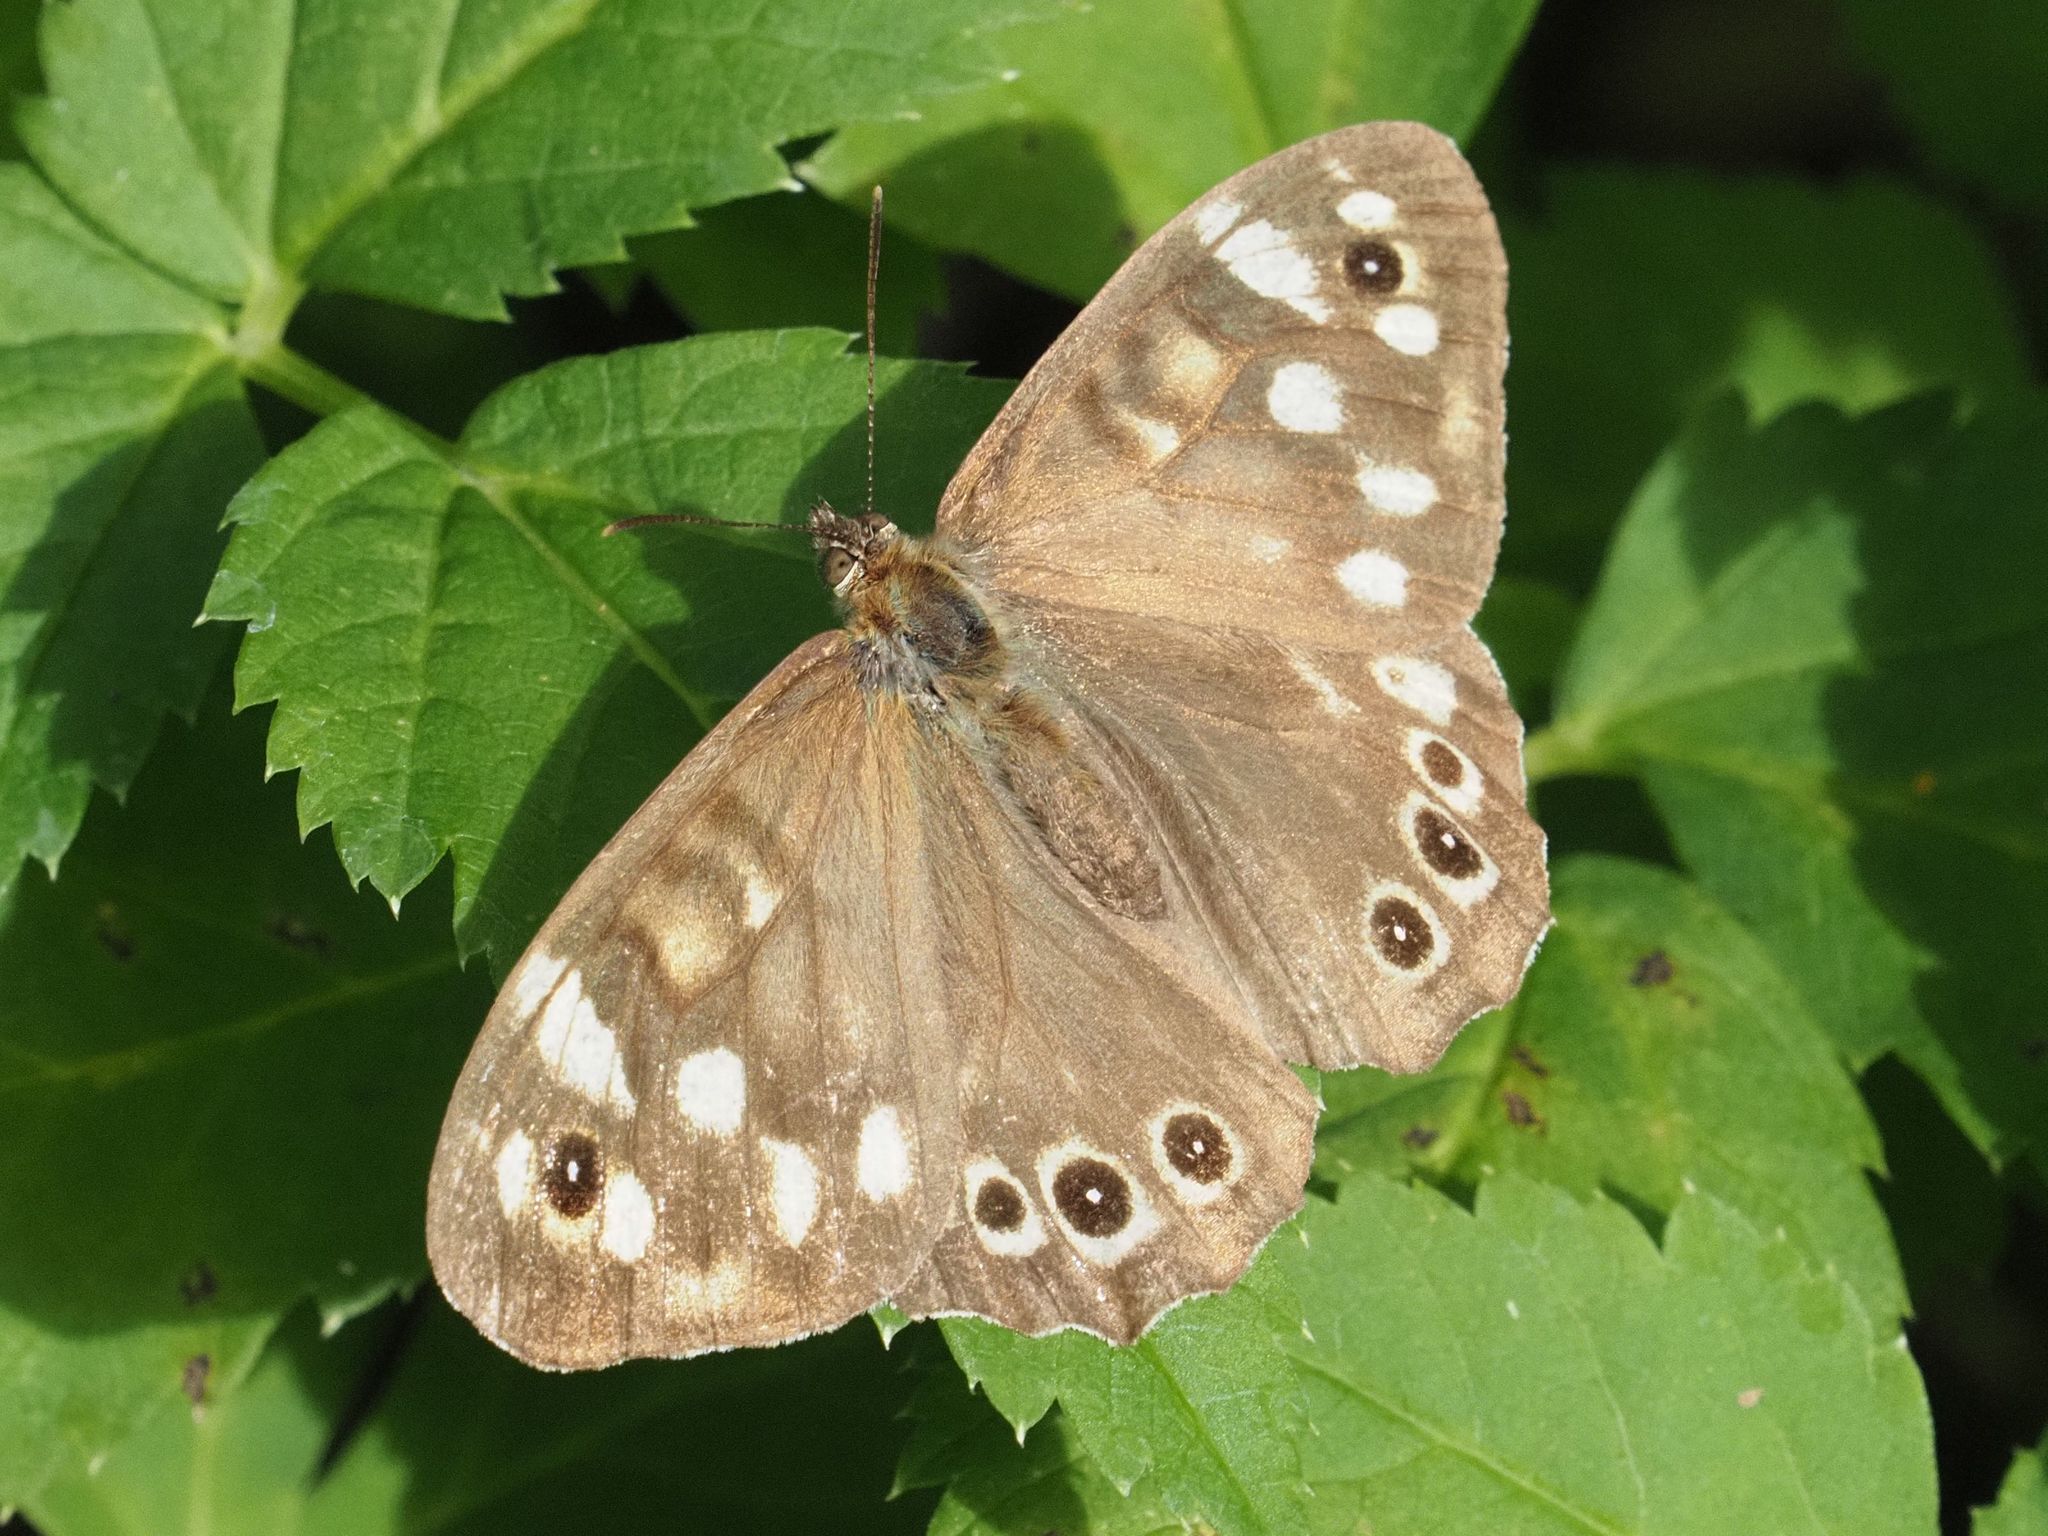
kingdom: Animalia
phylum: Arthropoda
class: Insecta
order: Lepidoptera
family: Nymphalidae
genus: Pararge
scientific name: Pararge aegeria
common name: Speckled wood
